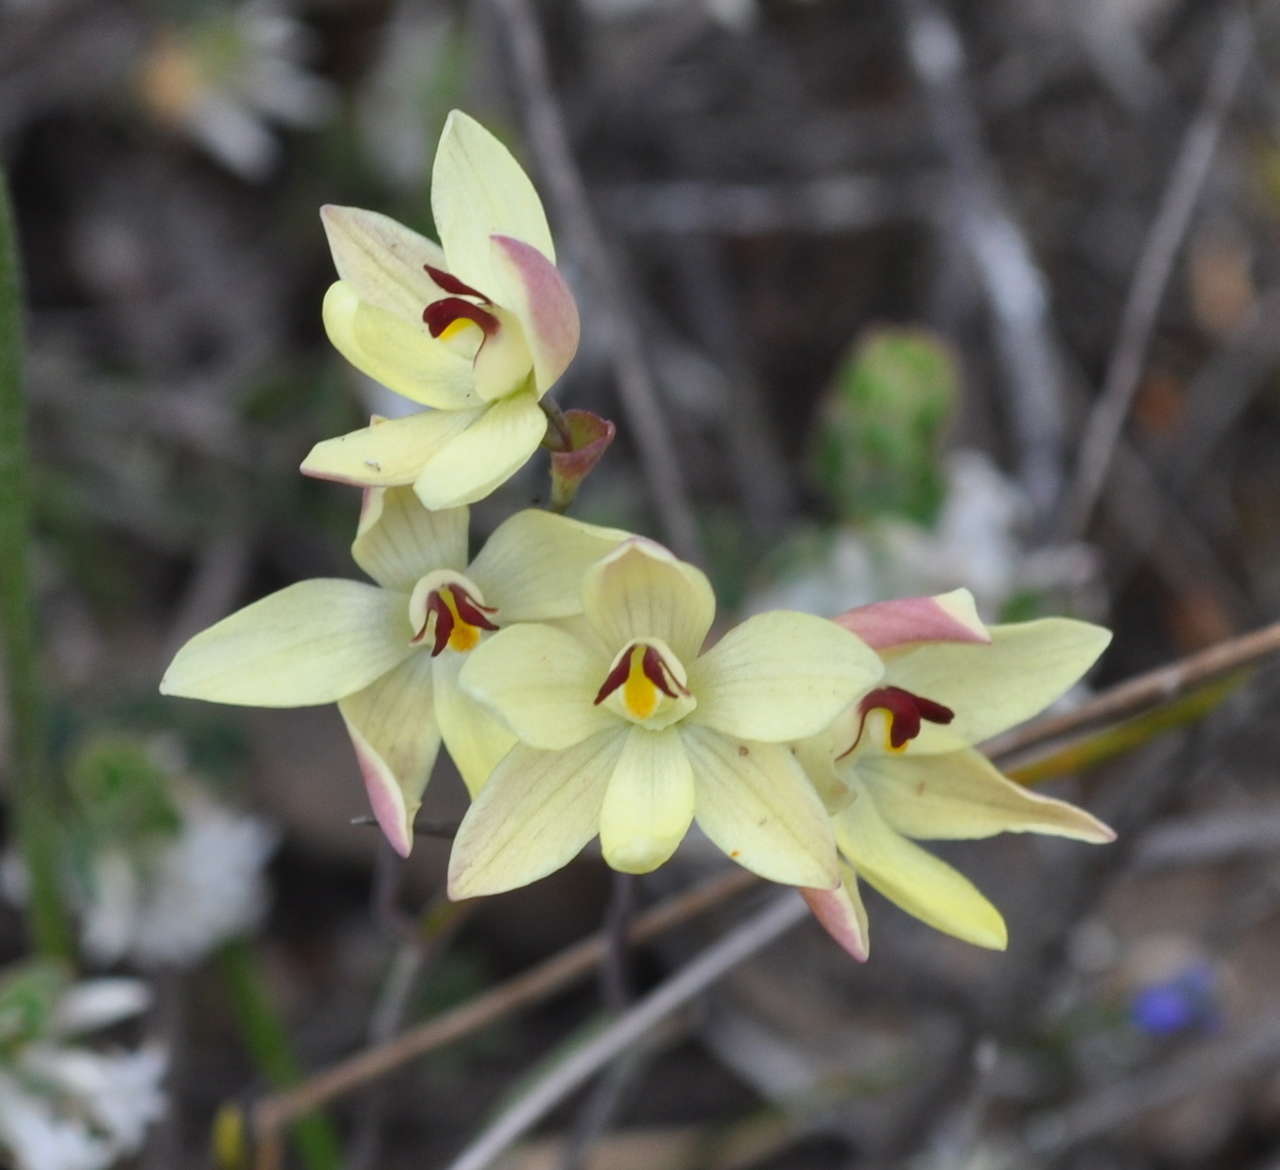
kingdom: Plantae
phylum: Tracheophyta
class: Liliopsida
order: Asparagales
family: Orchidaceae
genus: Thelymitra
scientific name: Thelymitra antennifera
